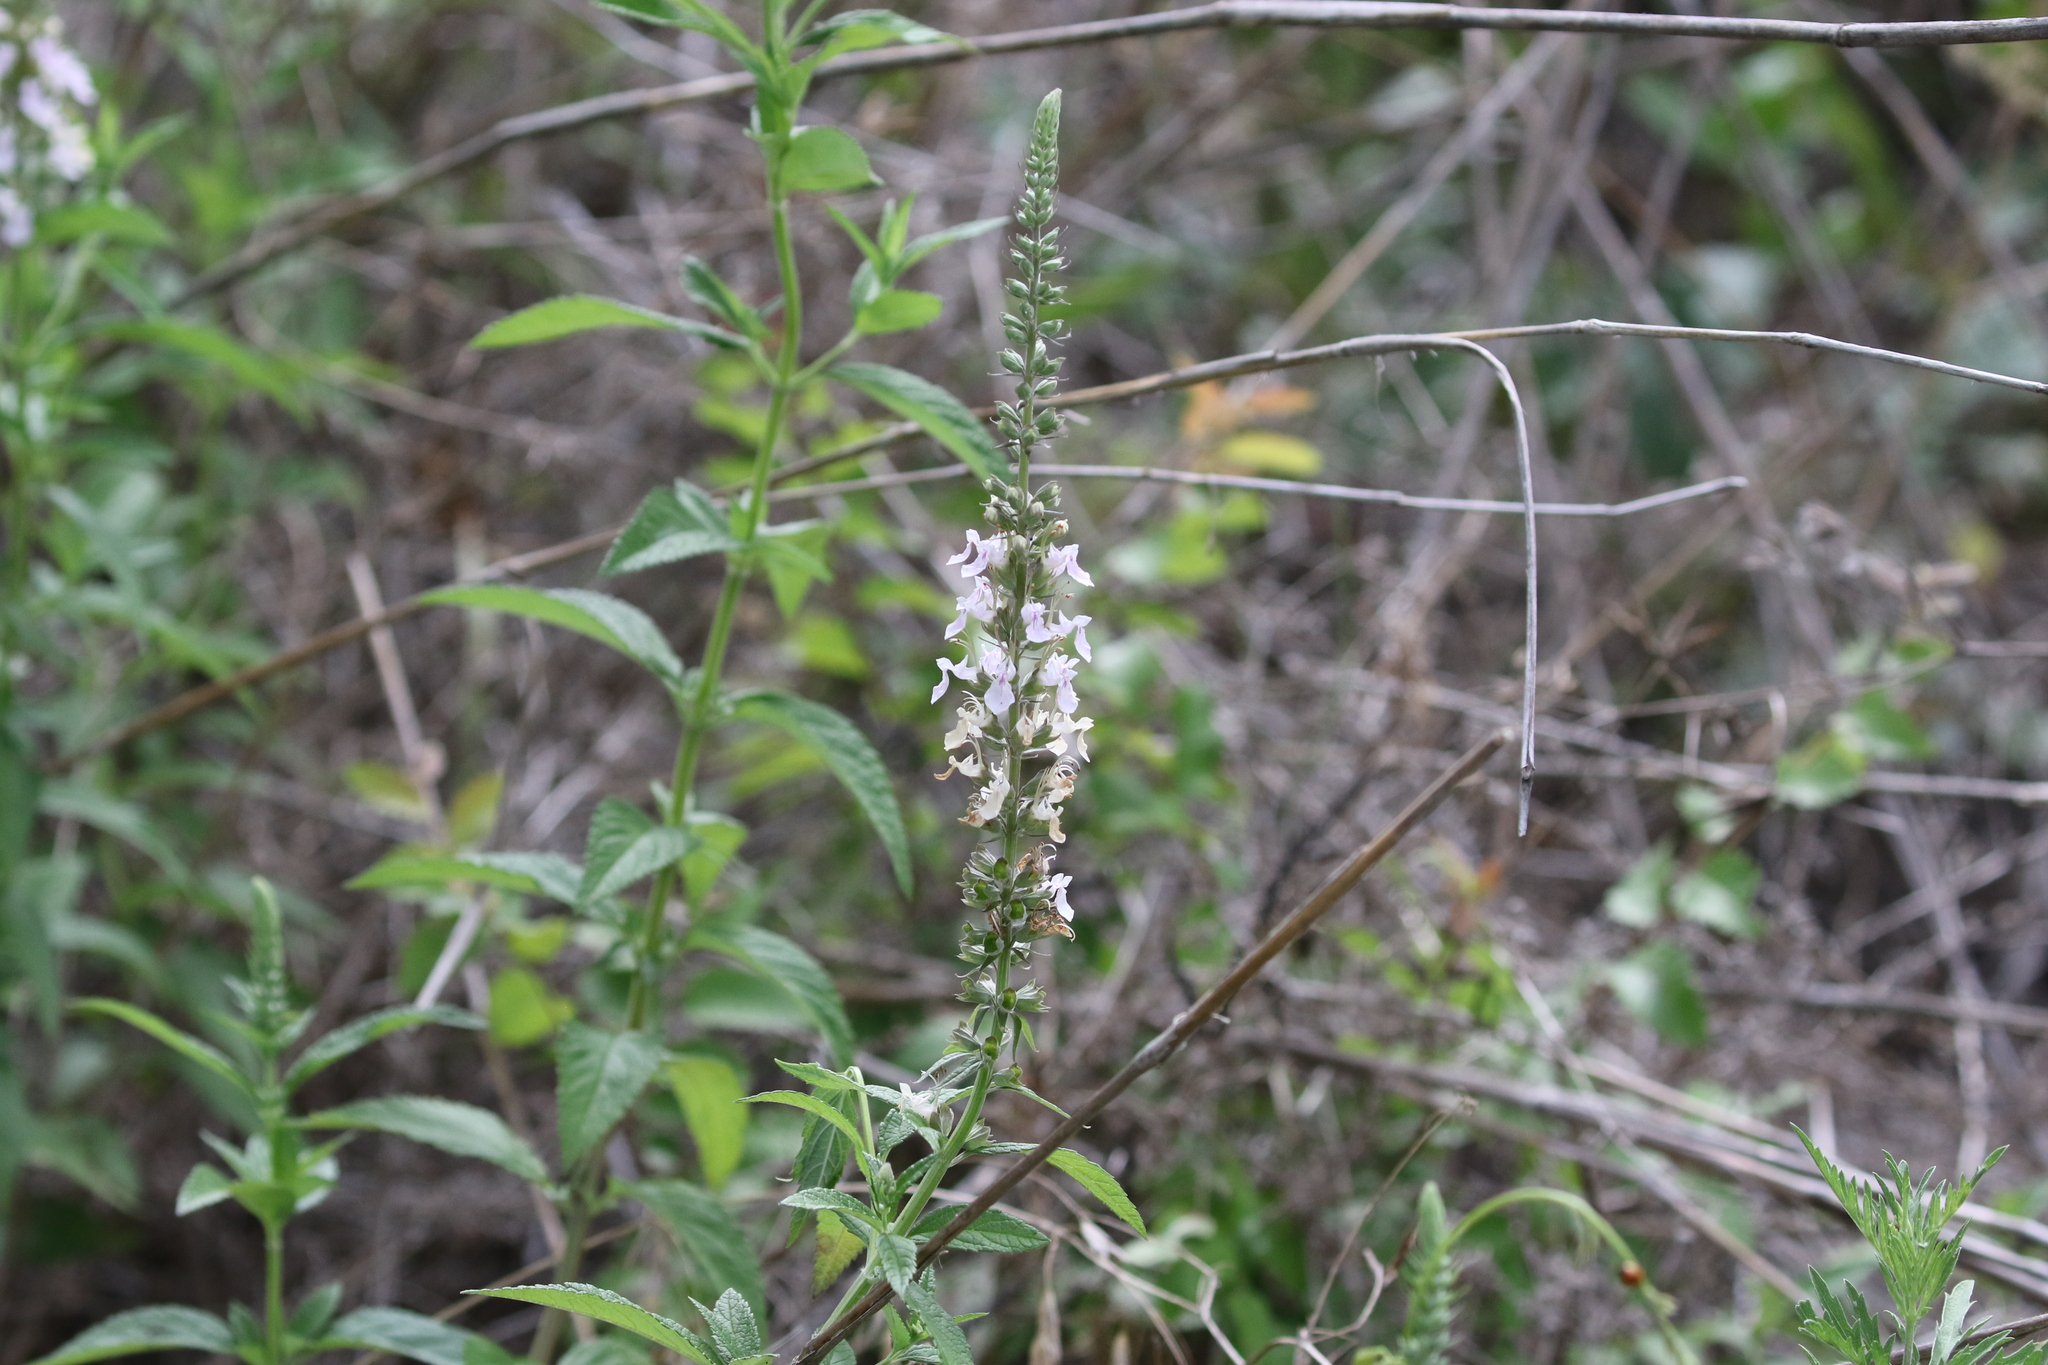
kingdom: Plantae
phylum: Tracheophyta
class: Magnoliopsida
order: Lamiales
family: Lamiaceae
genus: Teucrium
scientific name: Teucrium canadense
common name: American germander
